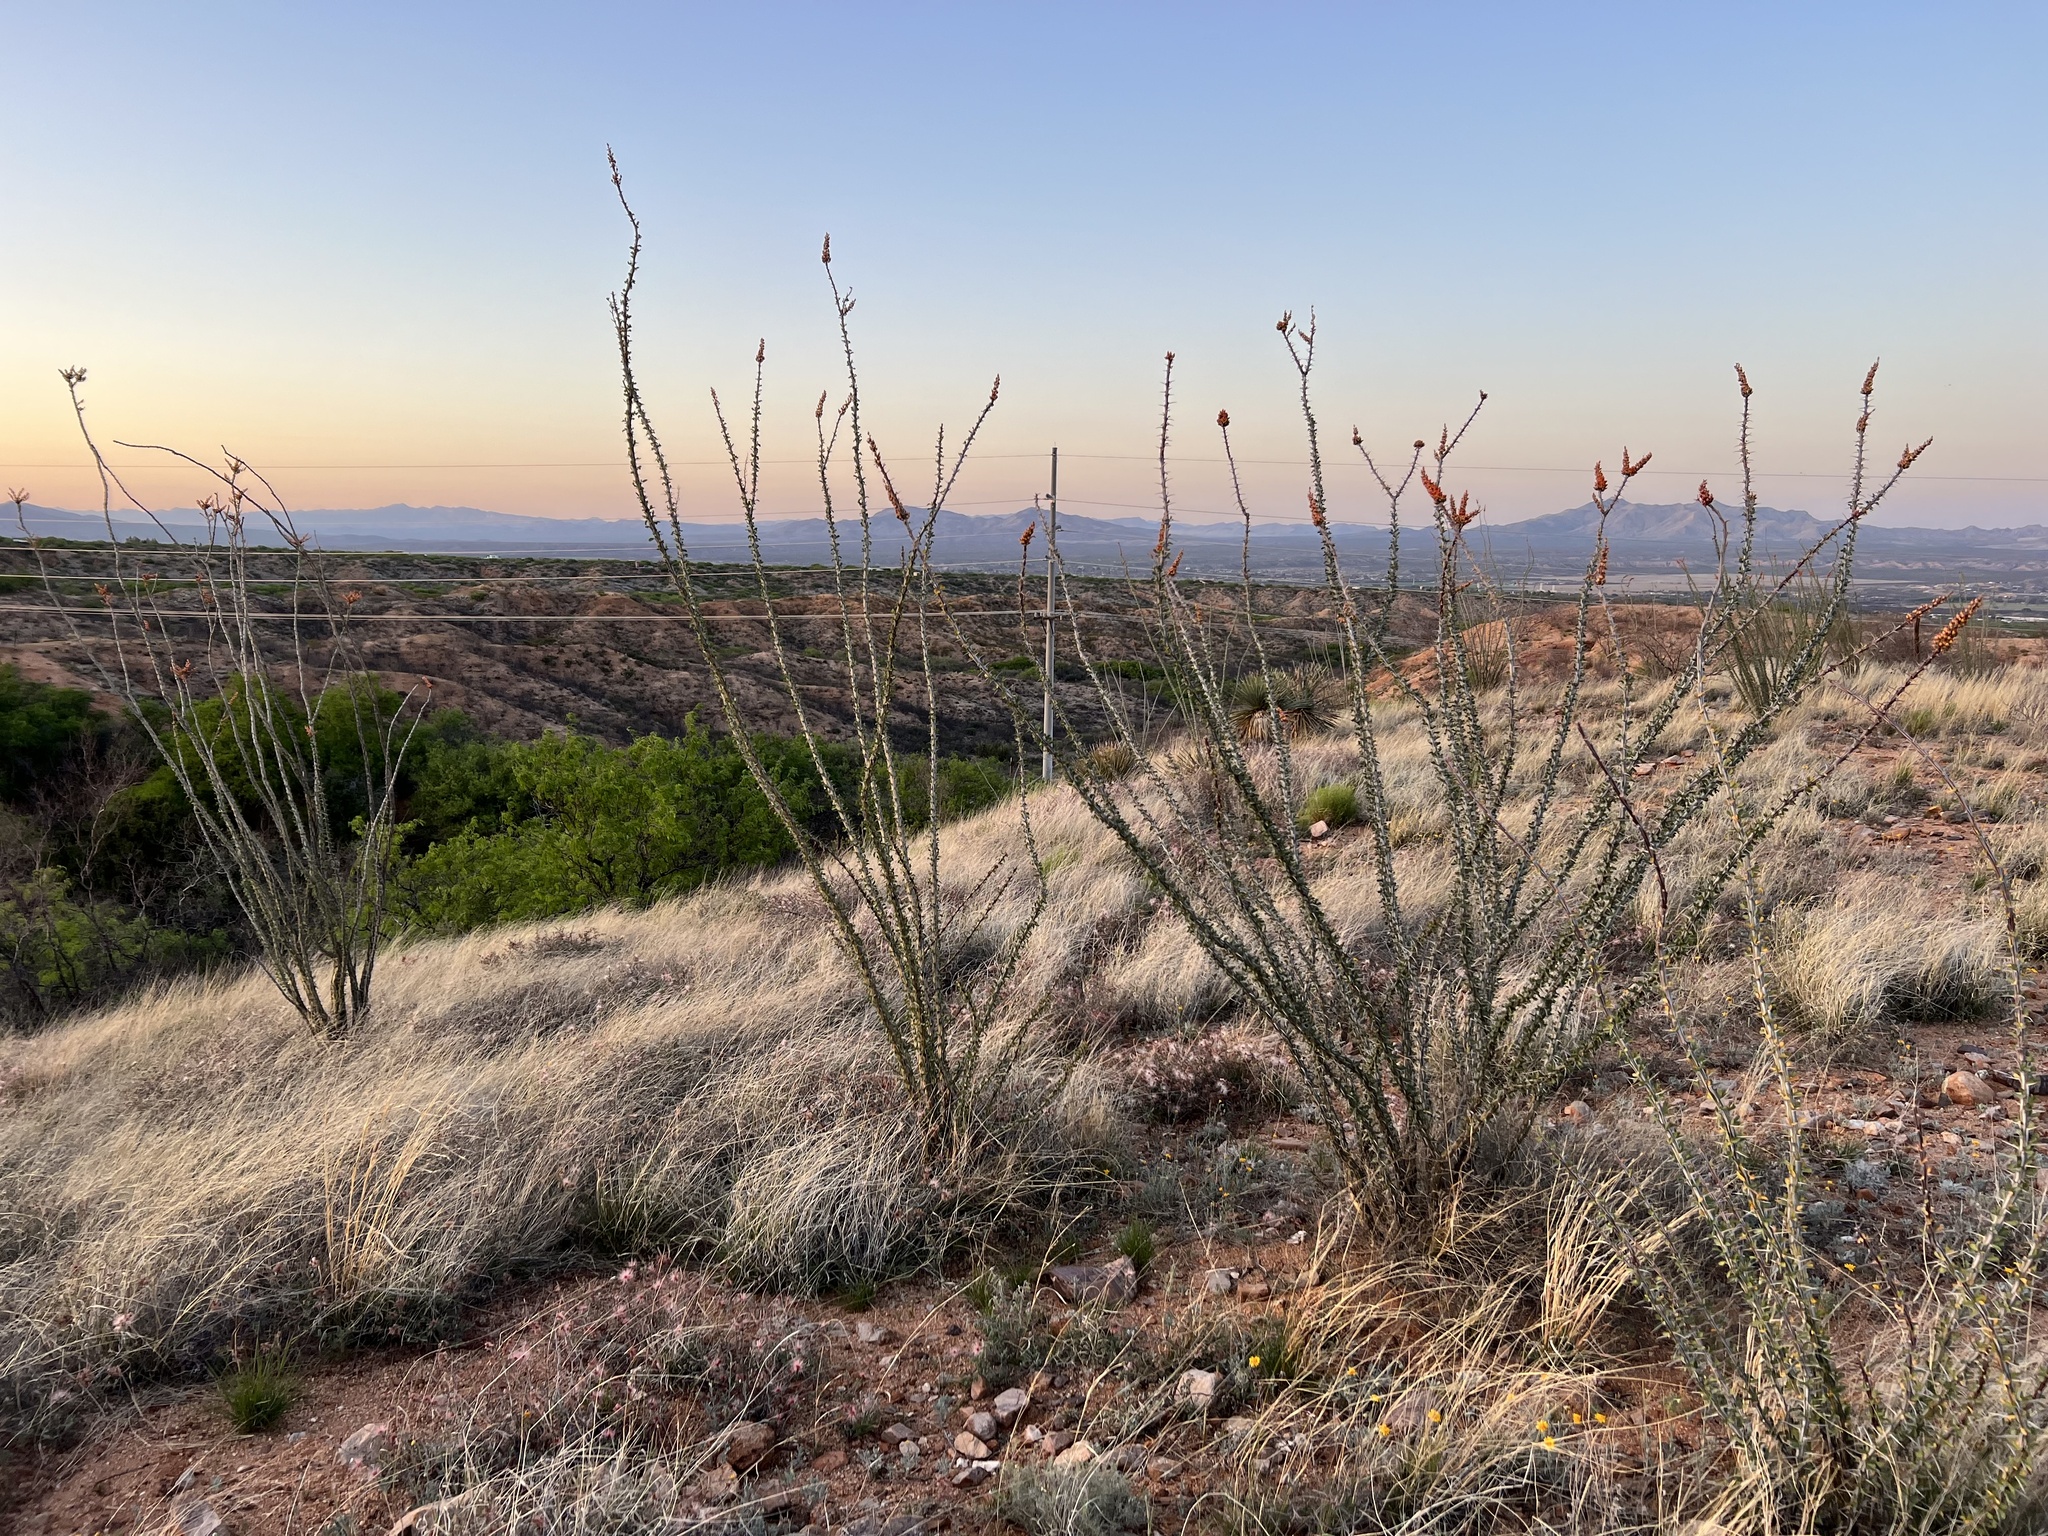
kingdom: Plantae
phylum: Tracheophyta
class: Magnoliopsida
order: Ericales
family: Fouquieriaceae
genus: Fouquieria
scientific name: Fouquieria splendens
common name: Vine-cactus
